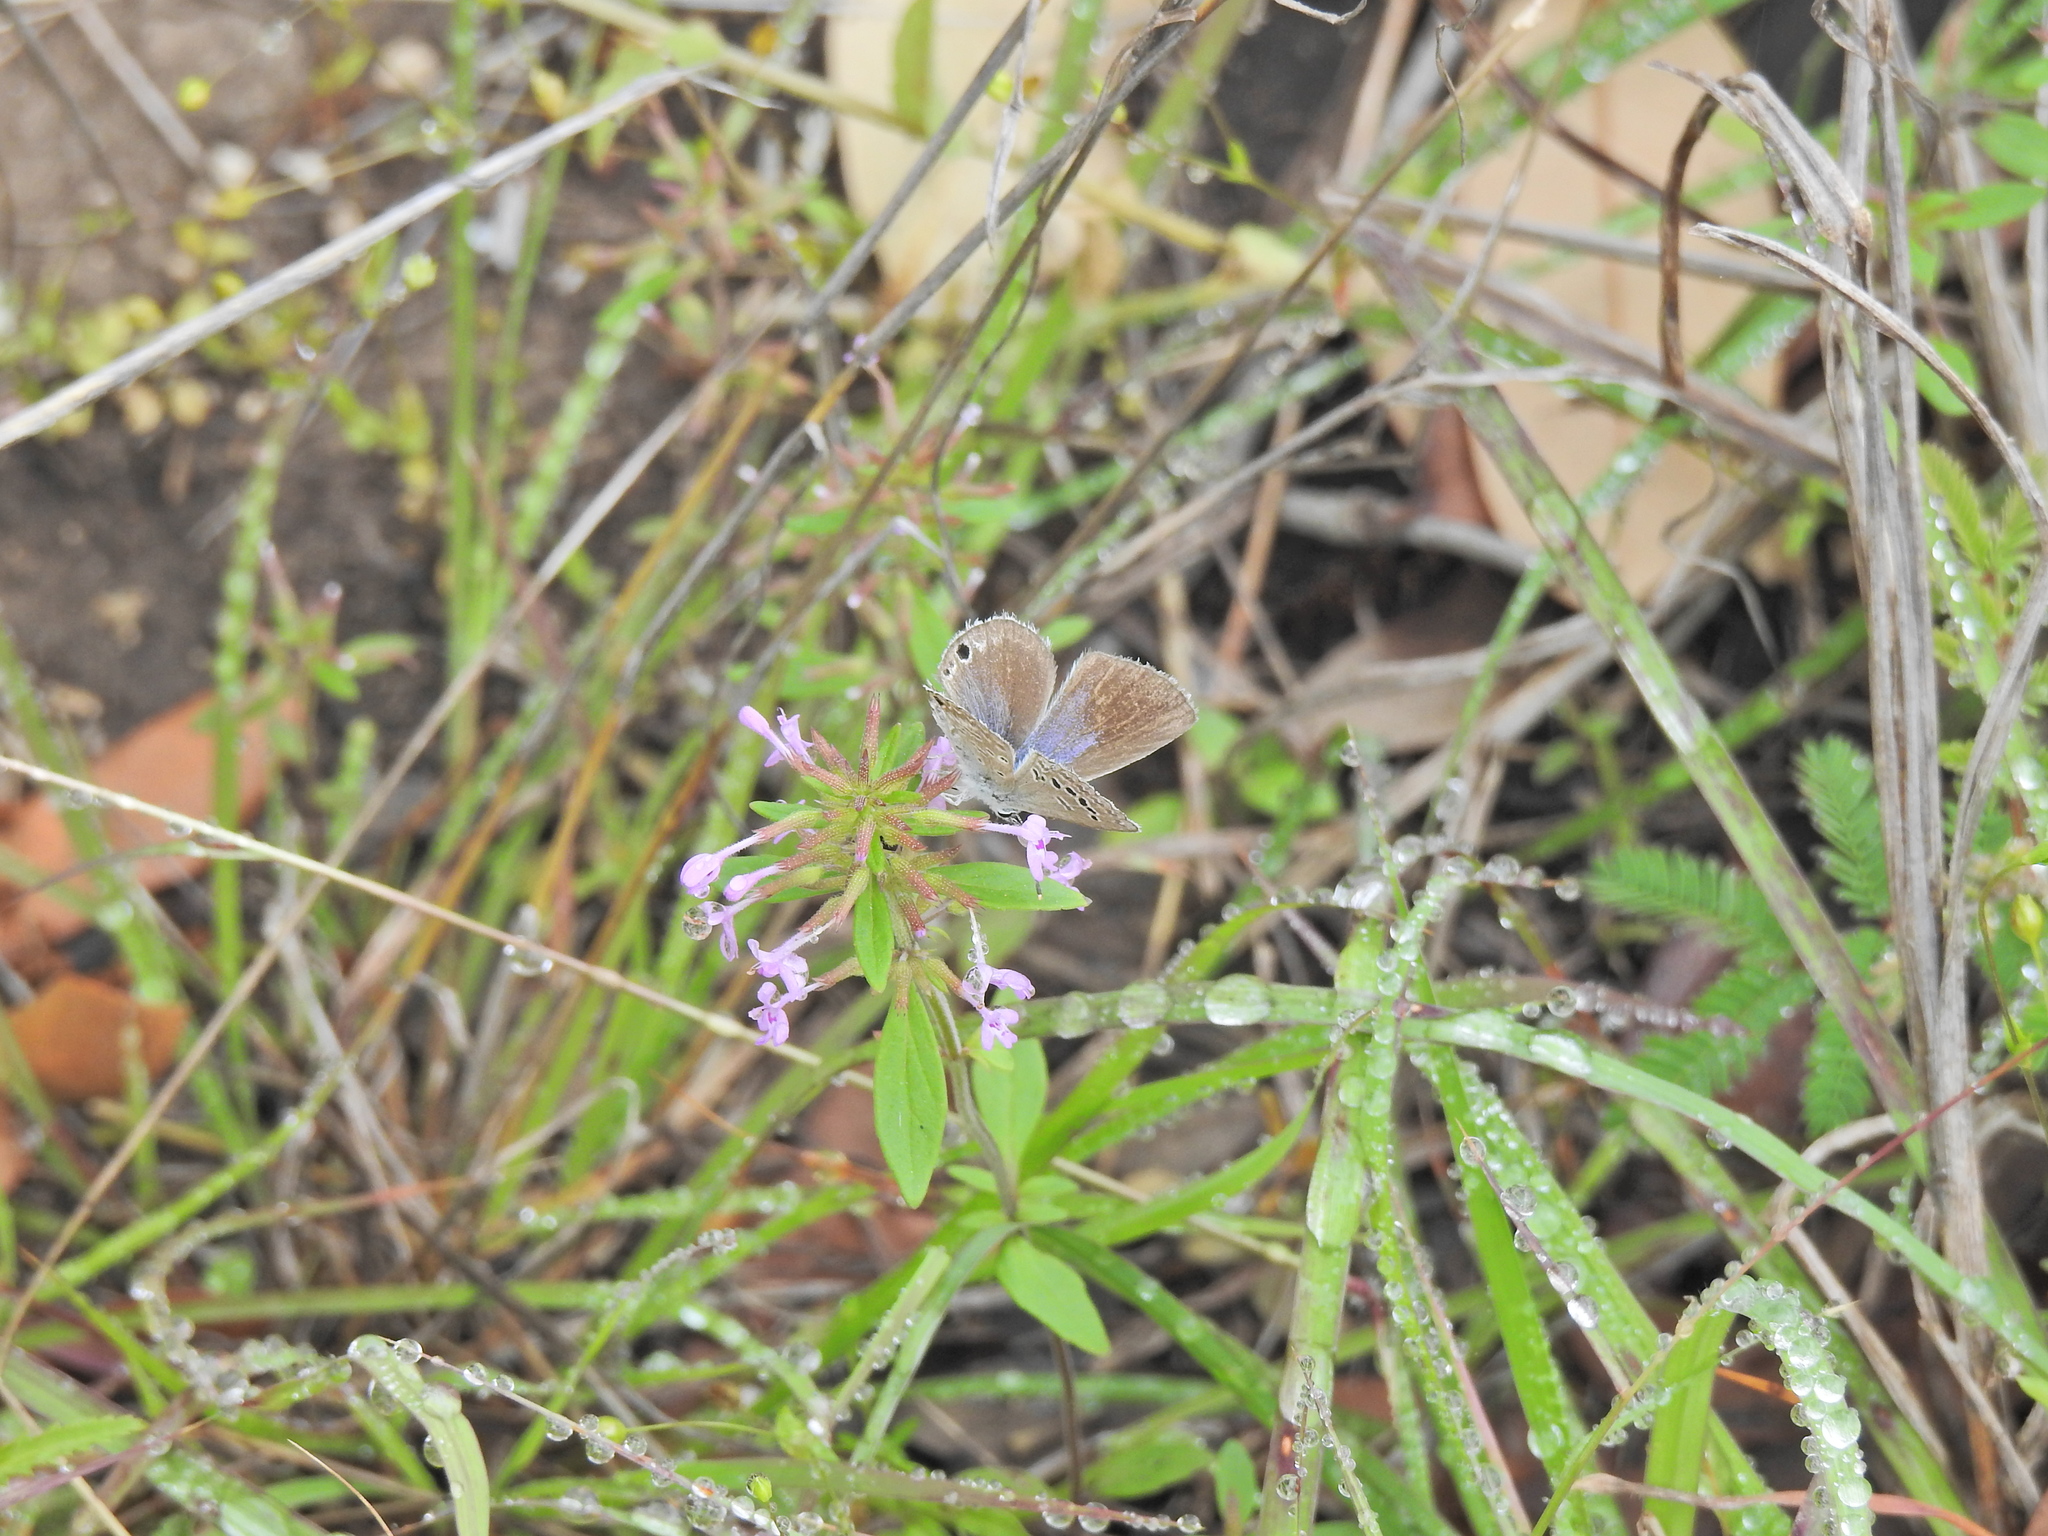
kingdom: Animalia
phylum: Arthropoda
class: Insecta
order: Lepidoptera
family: Lycaenidae
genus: Echinargus
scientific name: Echinargus isola
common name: Reakirt's blue
